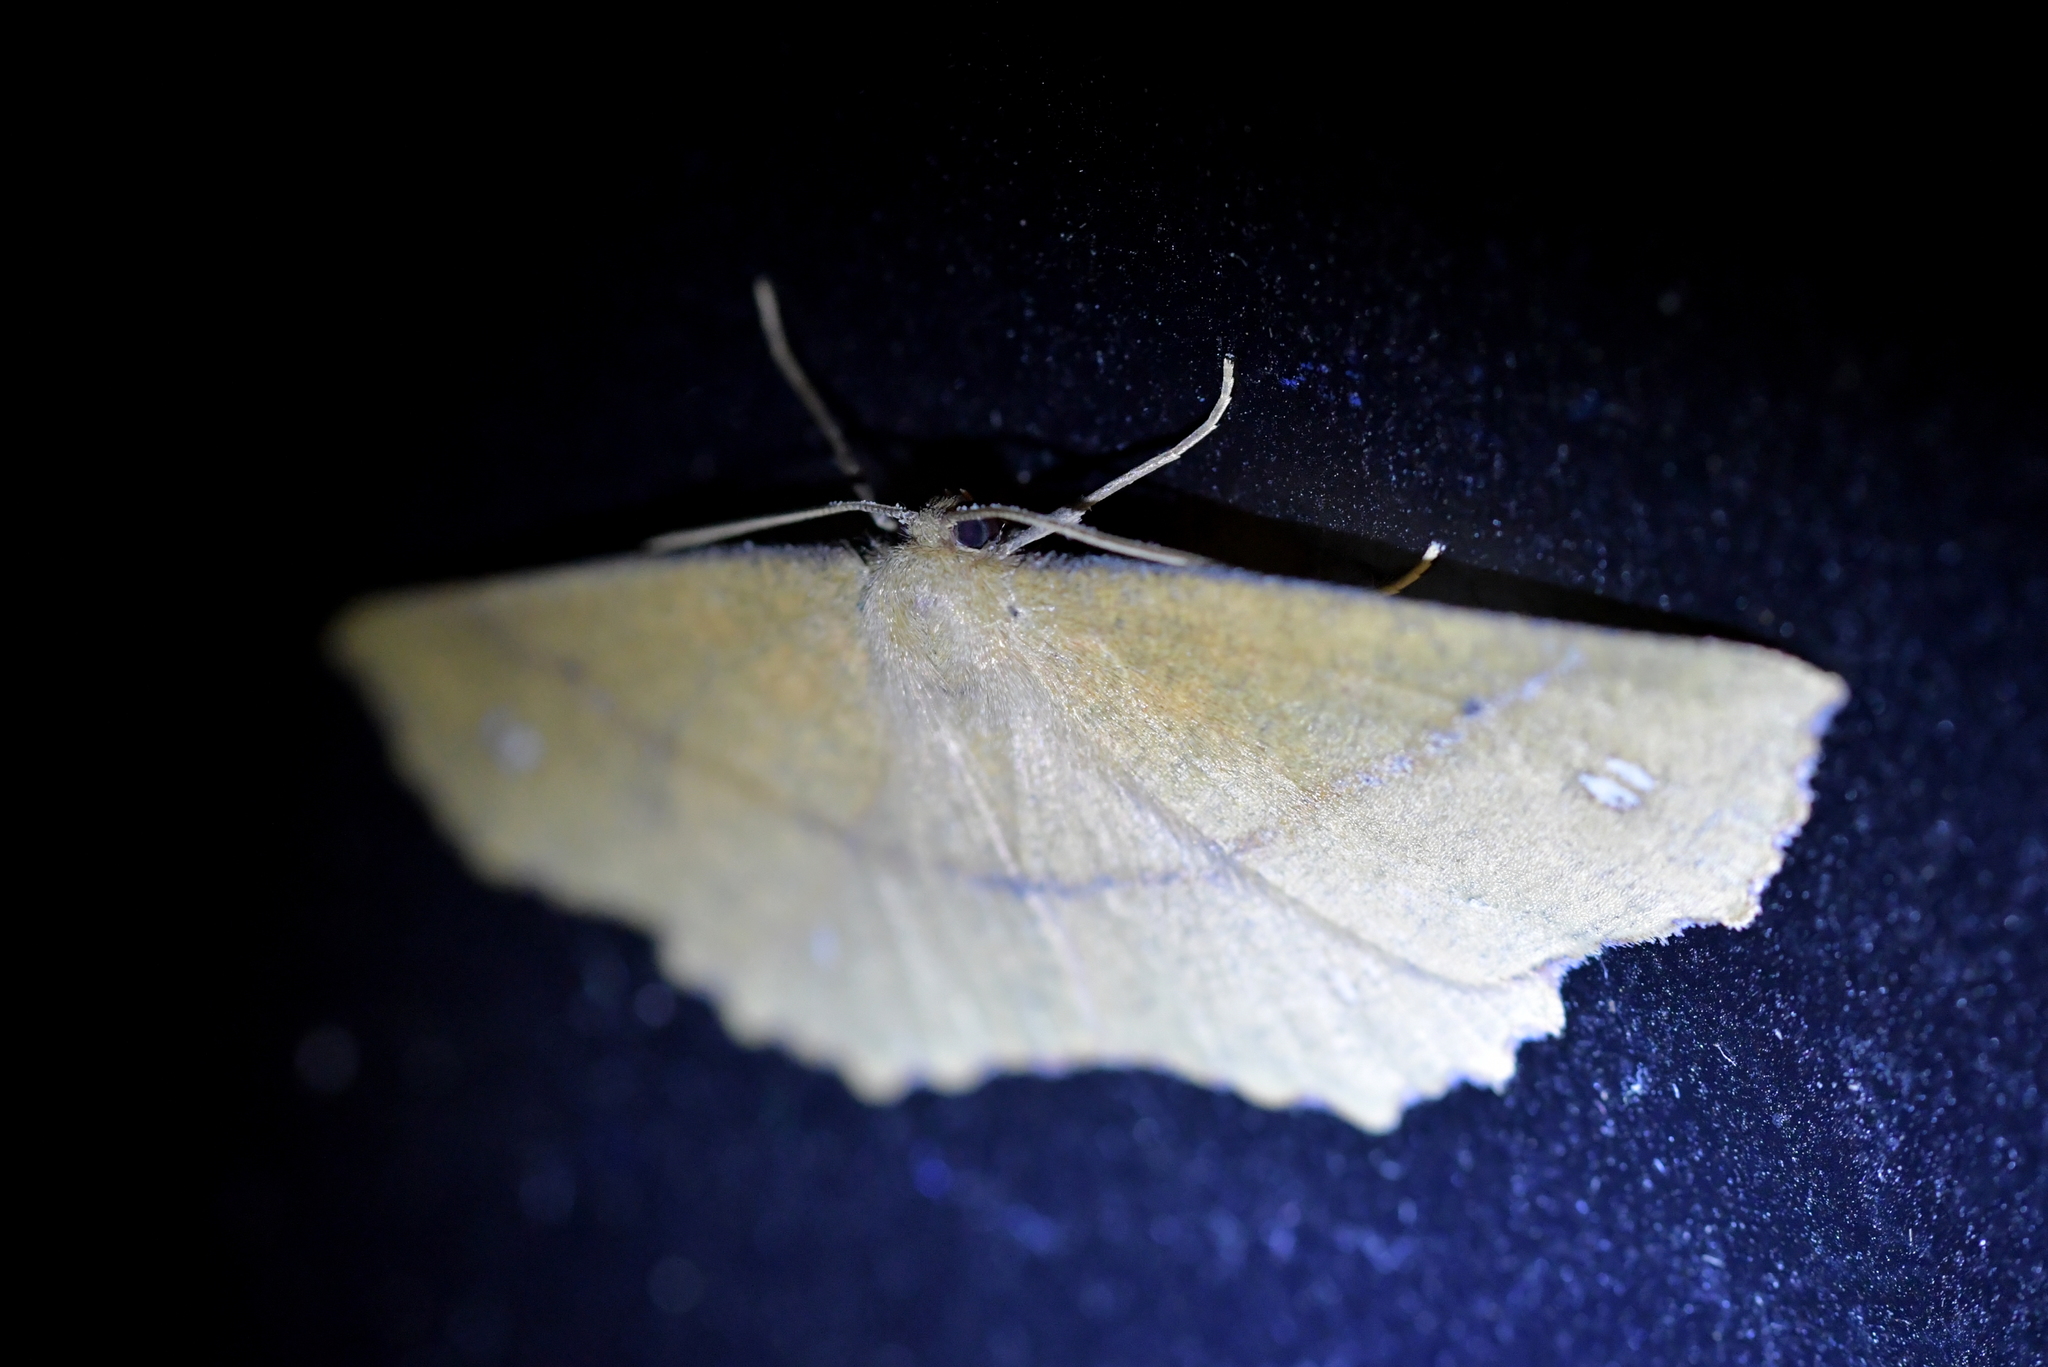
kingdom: Animalia
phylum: Arthropoda
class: Insecta
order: Lepidoptera
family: Geometridae
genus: Xyridacma
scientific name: Xyridacma ustaria
